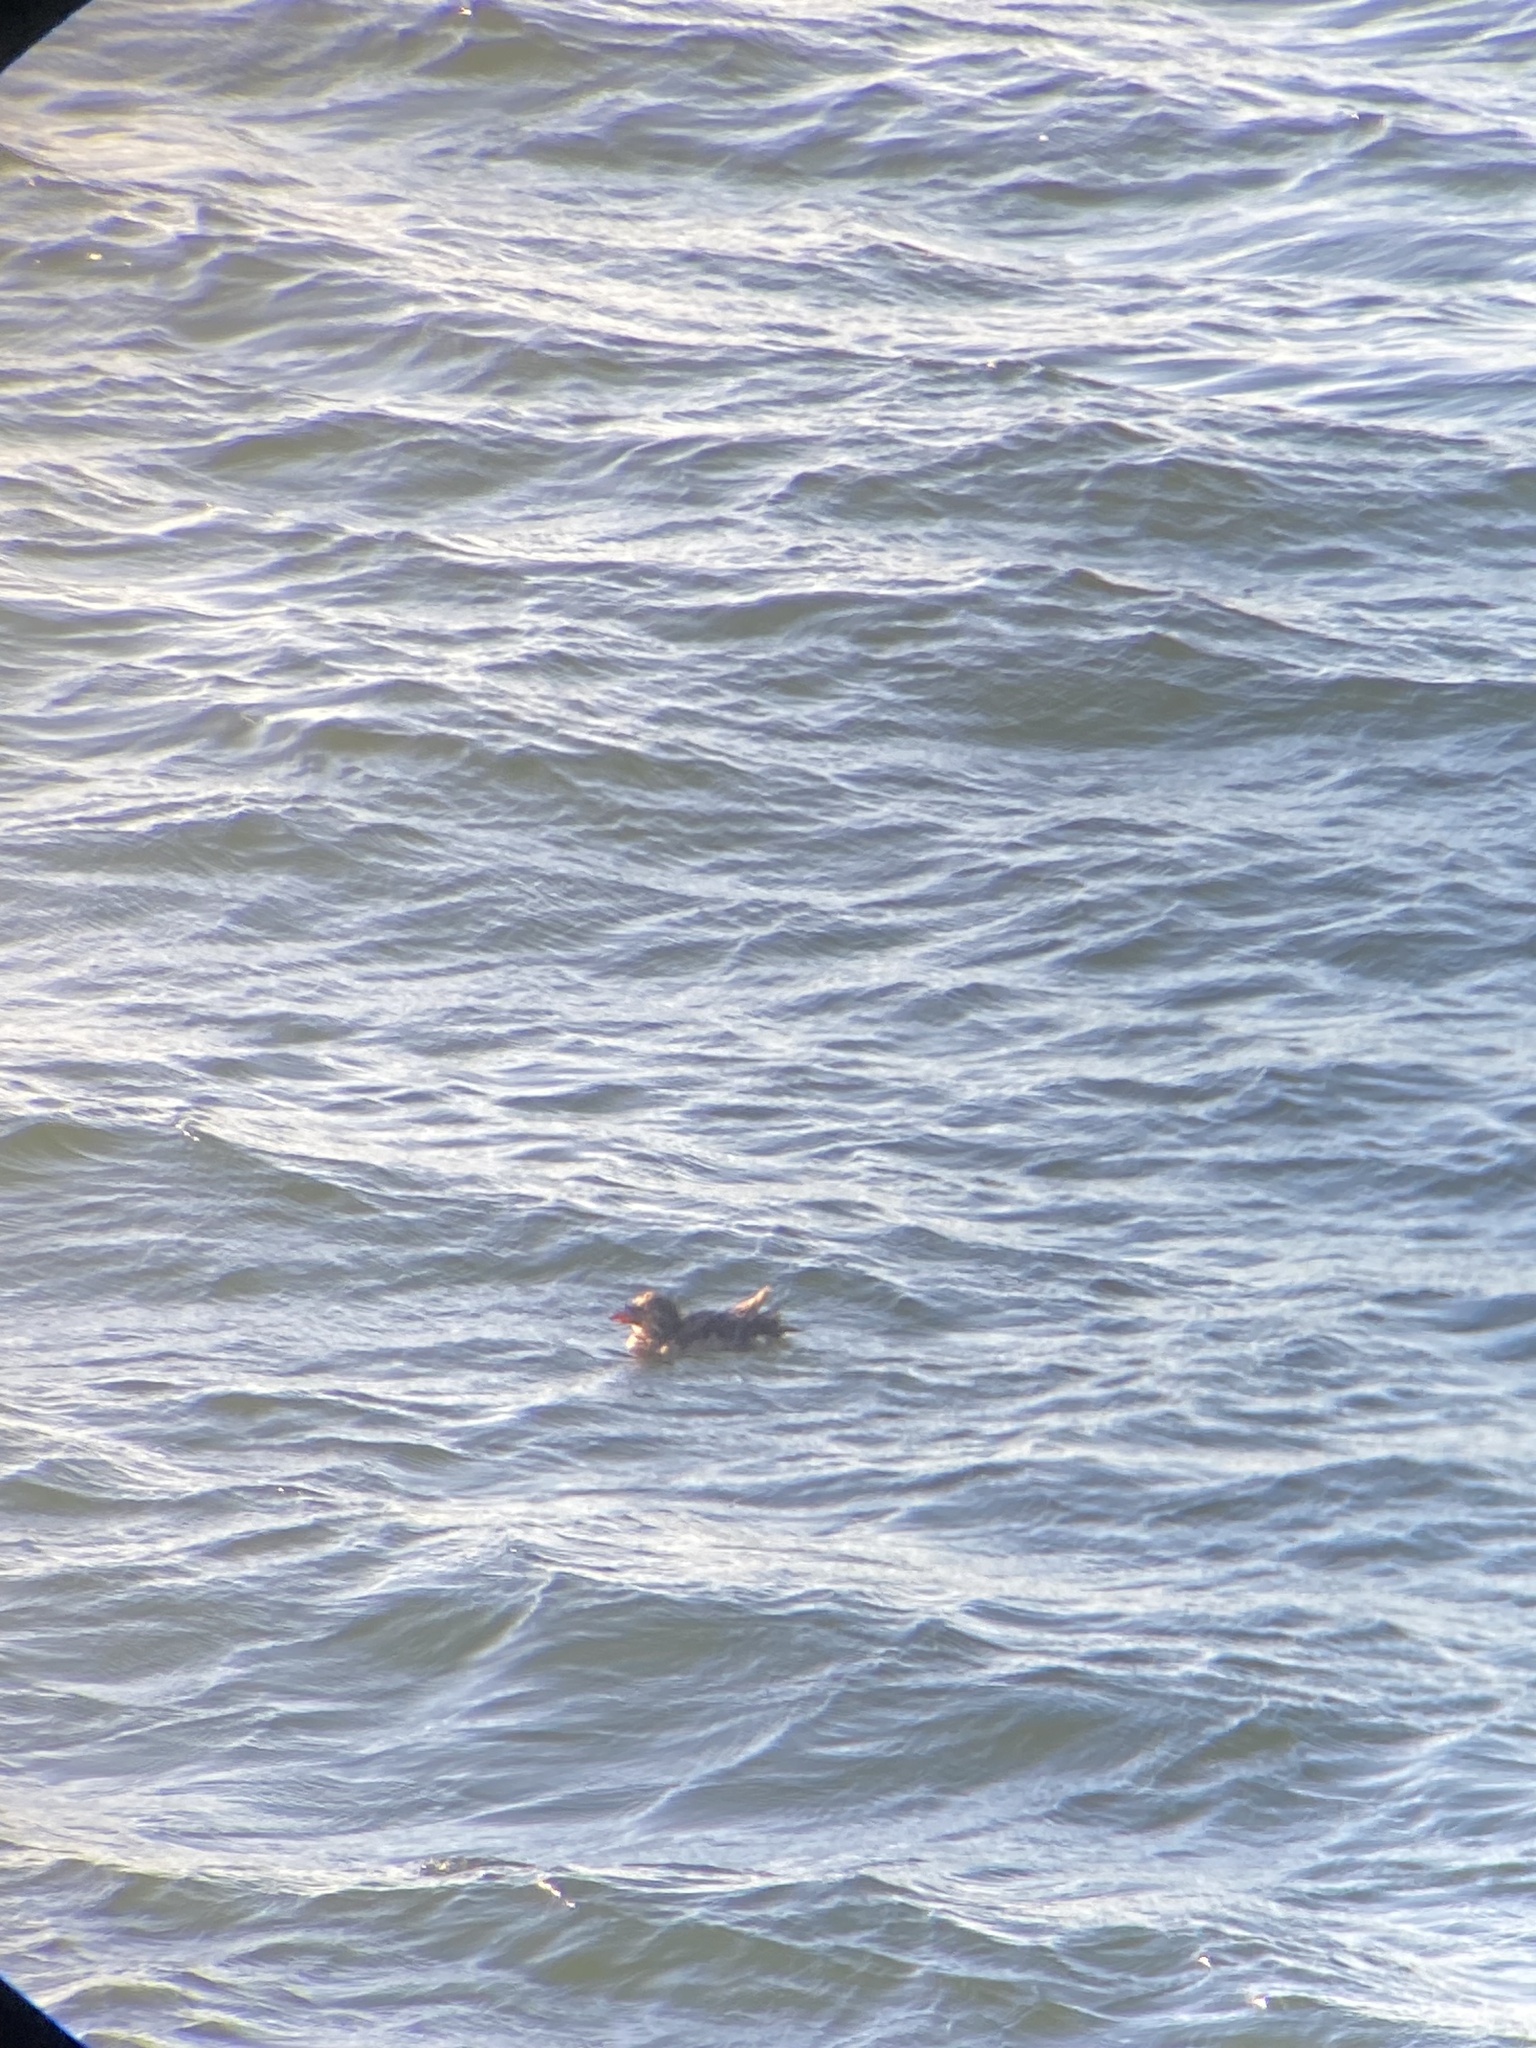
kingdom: Animalia
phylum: Chordata
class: Aves
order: Charadriiformes
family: Alcidae
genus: Cerorhinca
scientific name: Cerorhinca monocerata
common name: Rhinoceros auklet
